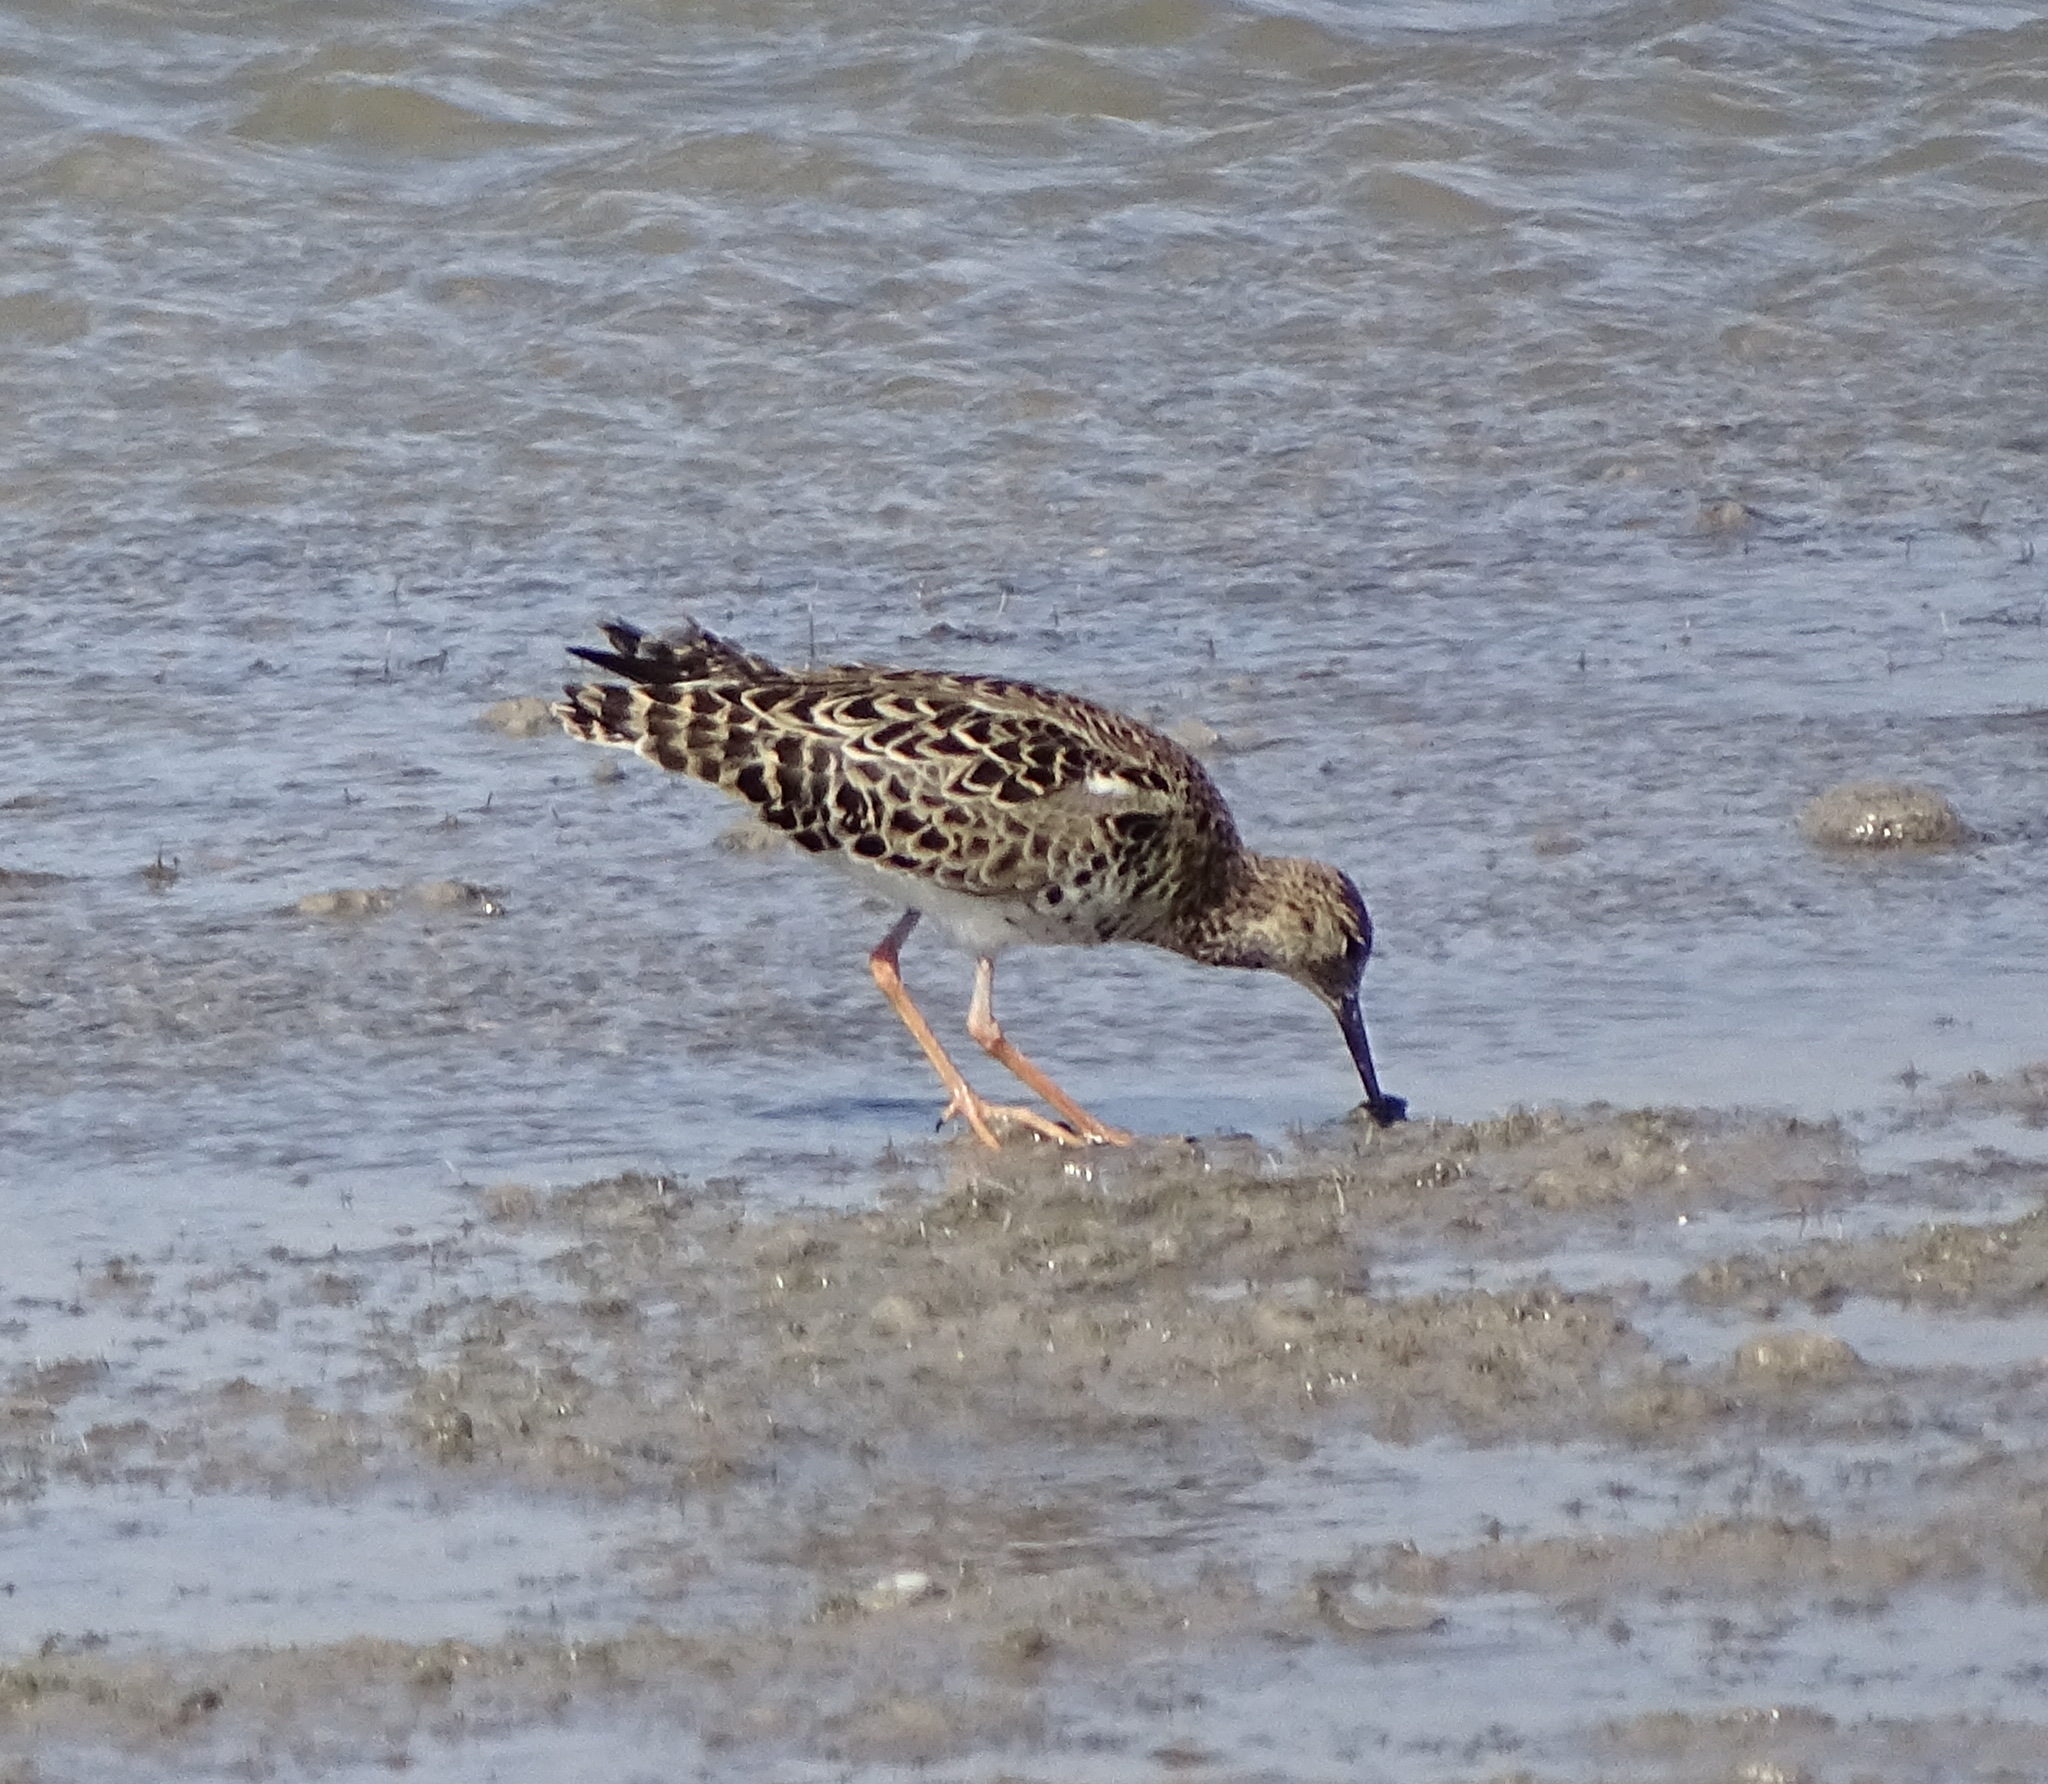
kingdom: Animalia
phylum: Chordata
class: Aves
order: Charadriiformes
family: Scolopacidae
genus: Calidris
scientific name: Calidris pugnax
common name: Ruff
